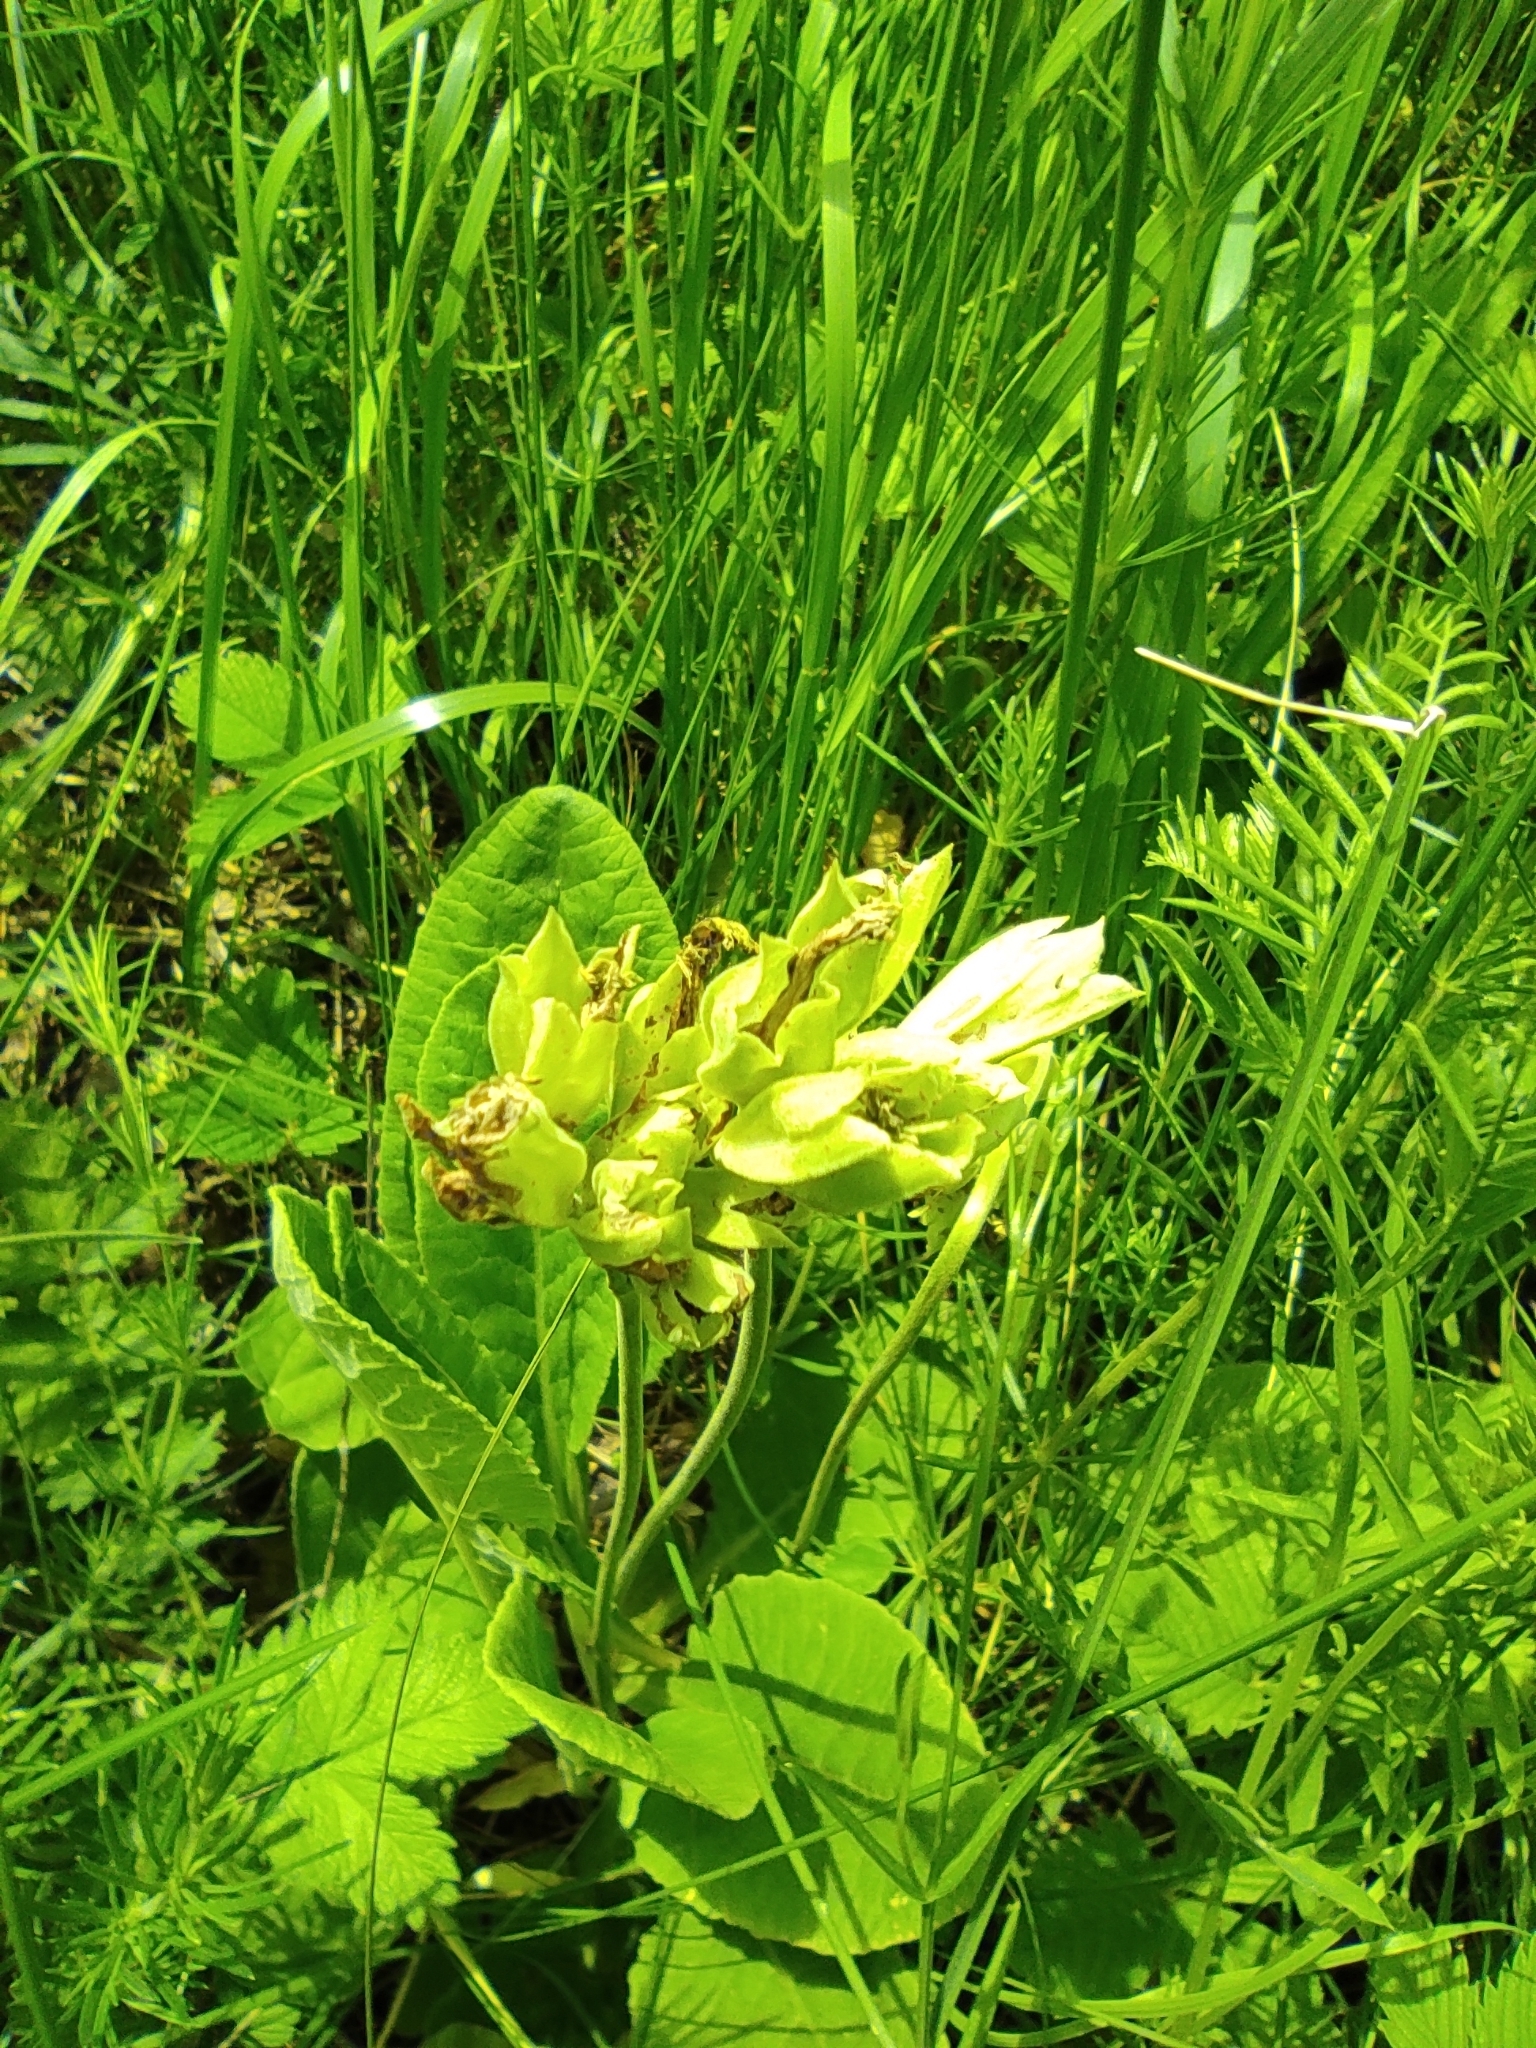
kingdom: Plantae
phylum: Tracheophyta
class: Magnoliopsida
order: Ericales
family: Primulaceae
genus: Primula
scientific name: Primula veris
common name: Cowslip
